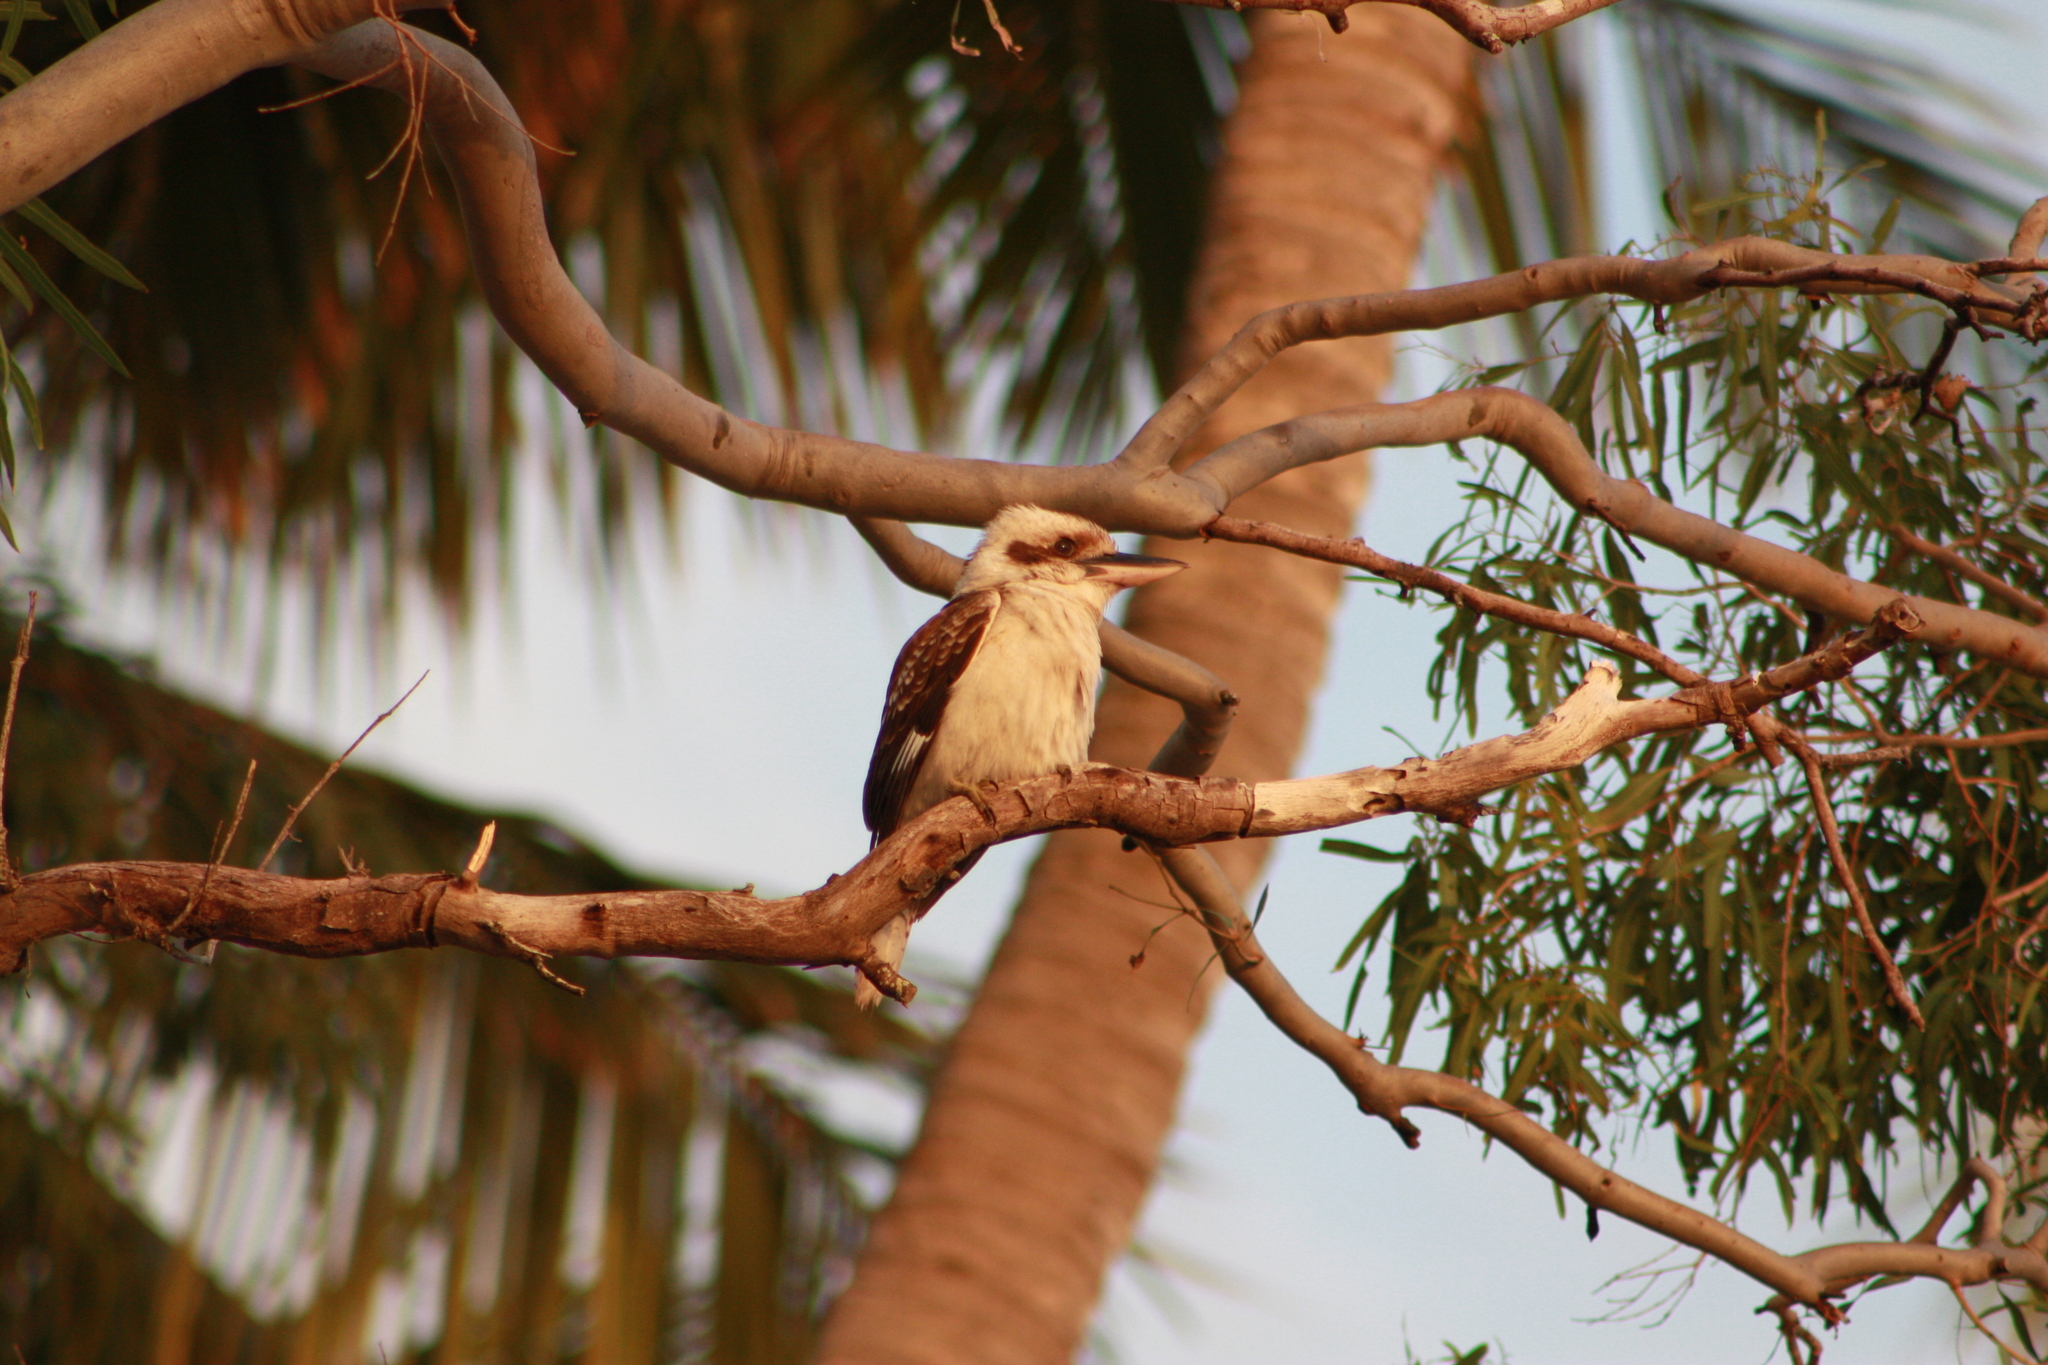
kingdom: Animalia
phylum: Chordata
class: Aves
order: Coraciiformes
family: Alcedinidae
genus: Dacelo
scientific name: Dacelo novaeguineae
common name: Laughing kookaburra
